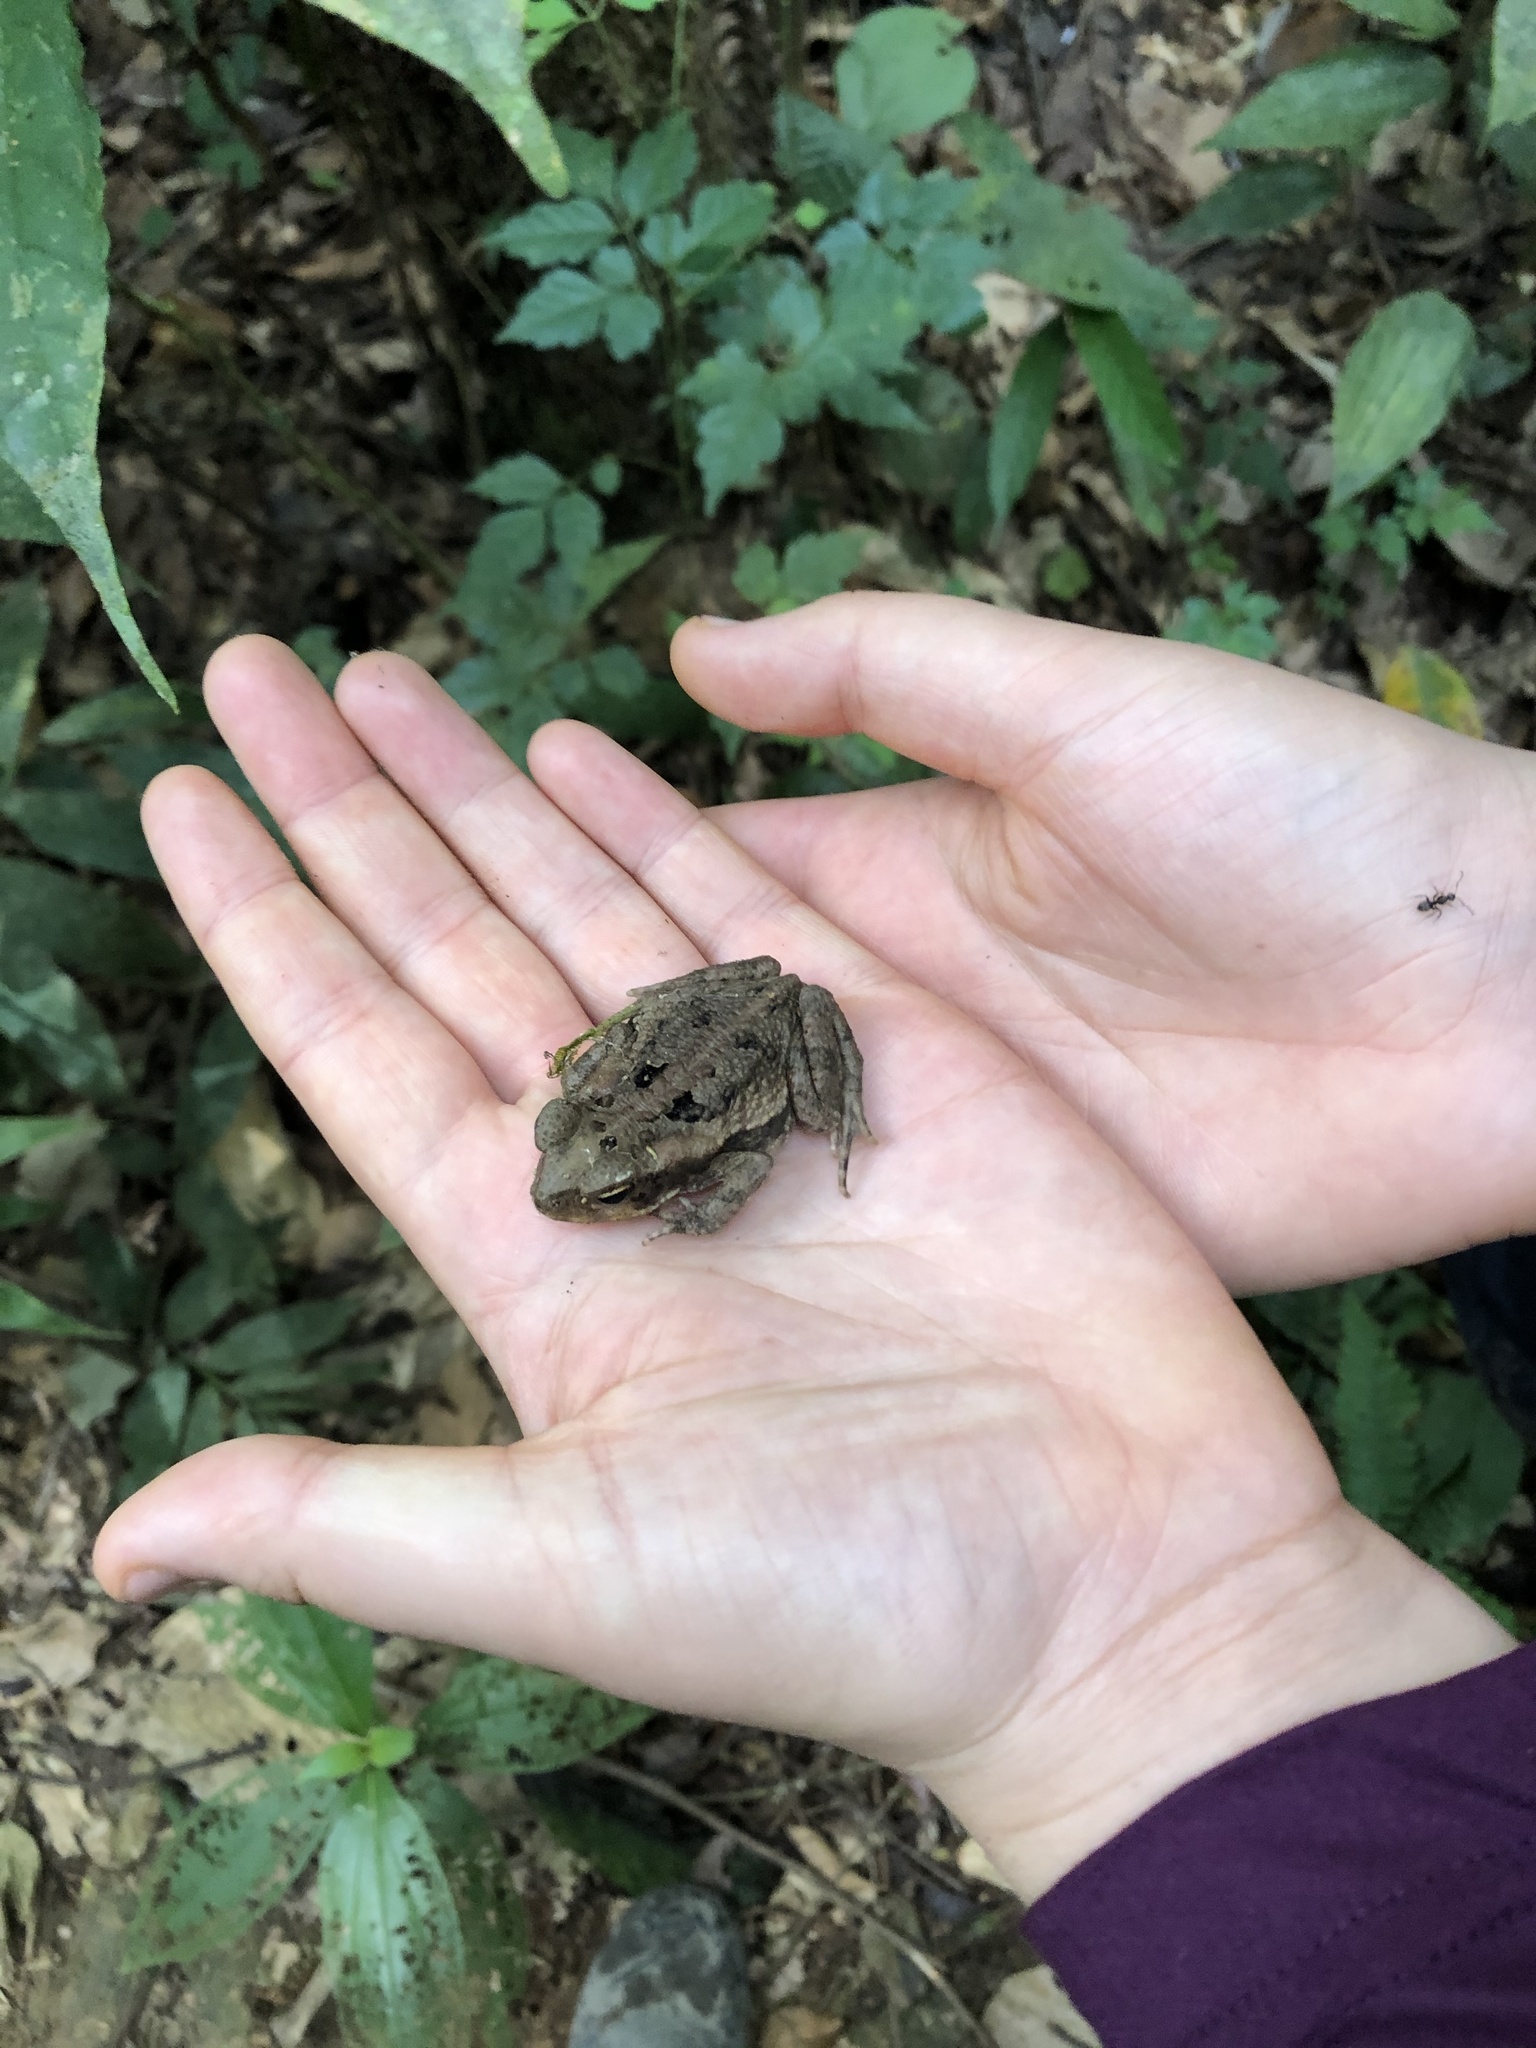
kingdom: Animalia
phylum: Chordata
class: Amphibia
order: Anura
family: Bufonidae
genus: Rhinella
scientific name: Rhinella marina
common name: Cane toad
